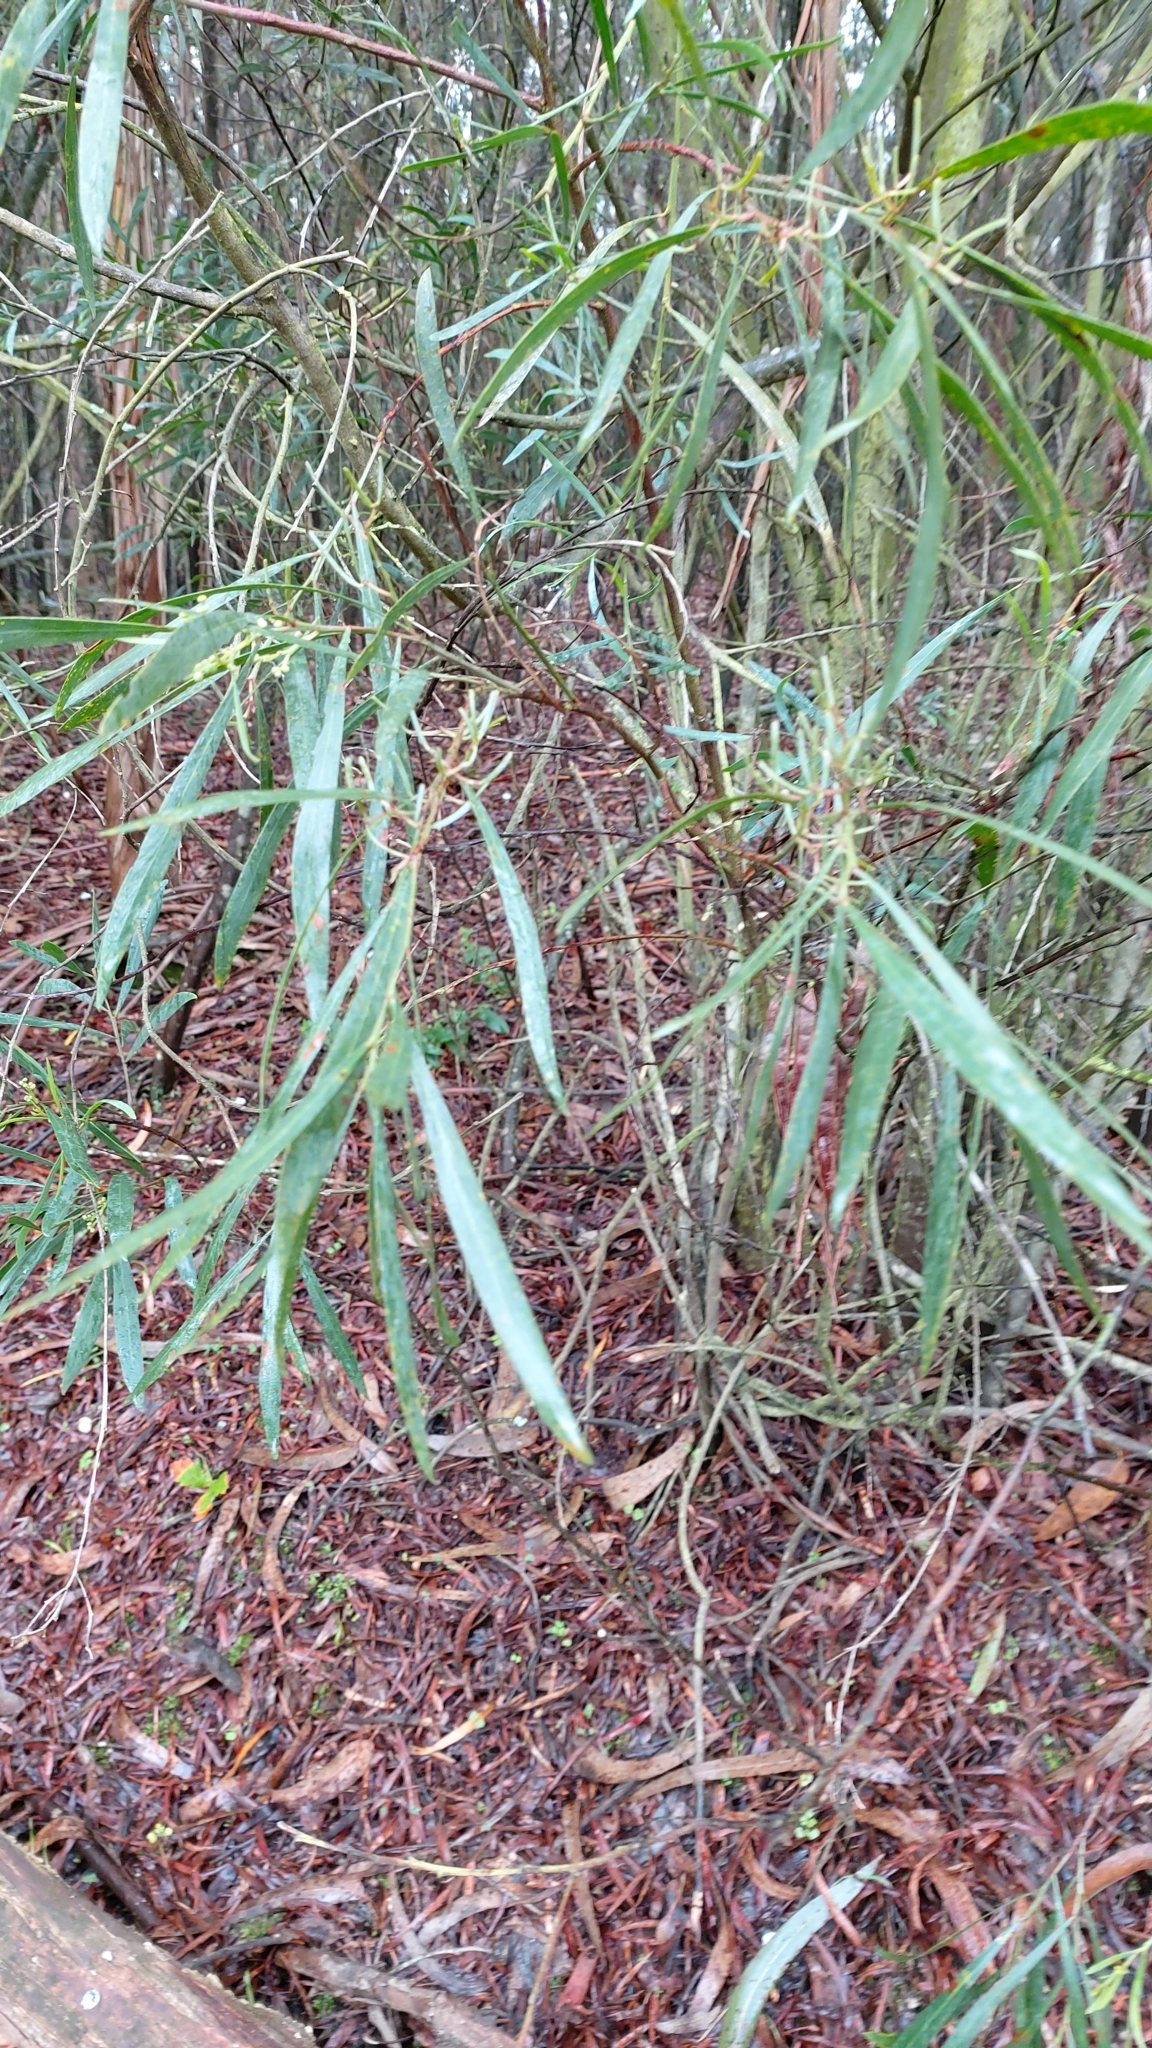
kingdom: Plantae
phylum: Tracheophyta
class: Magnoliopsida
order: Fabales
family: Fabaceae
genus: Acacia
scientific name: Acacia retinodes
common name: Silver wattle
